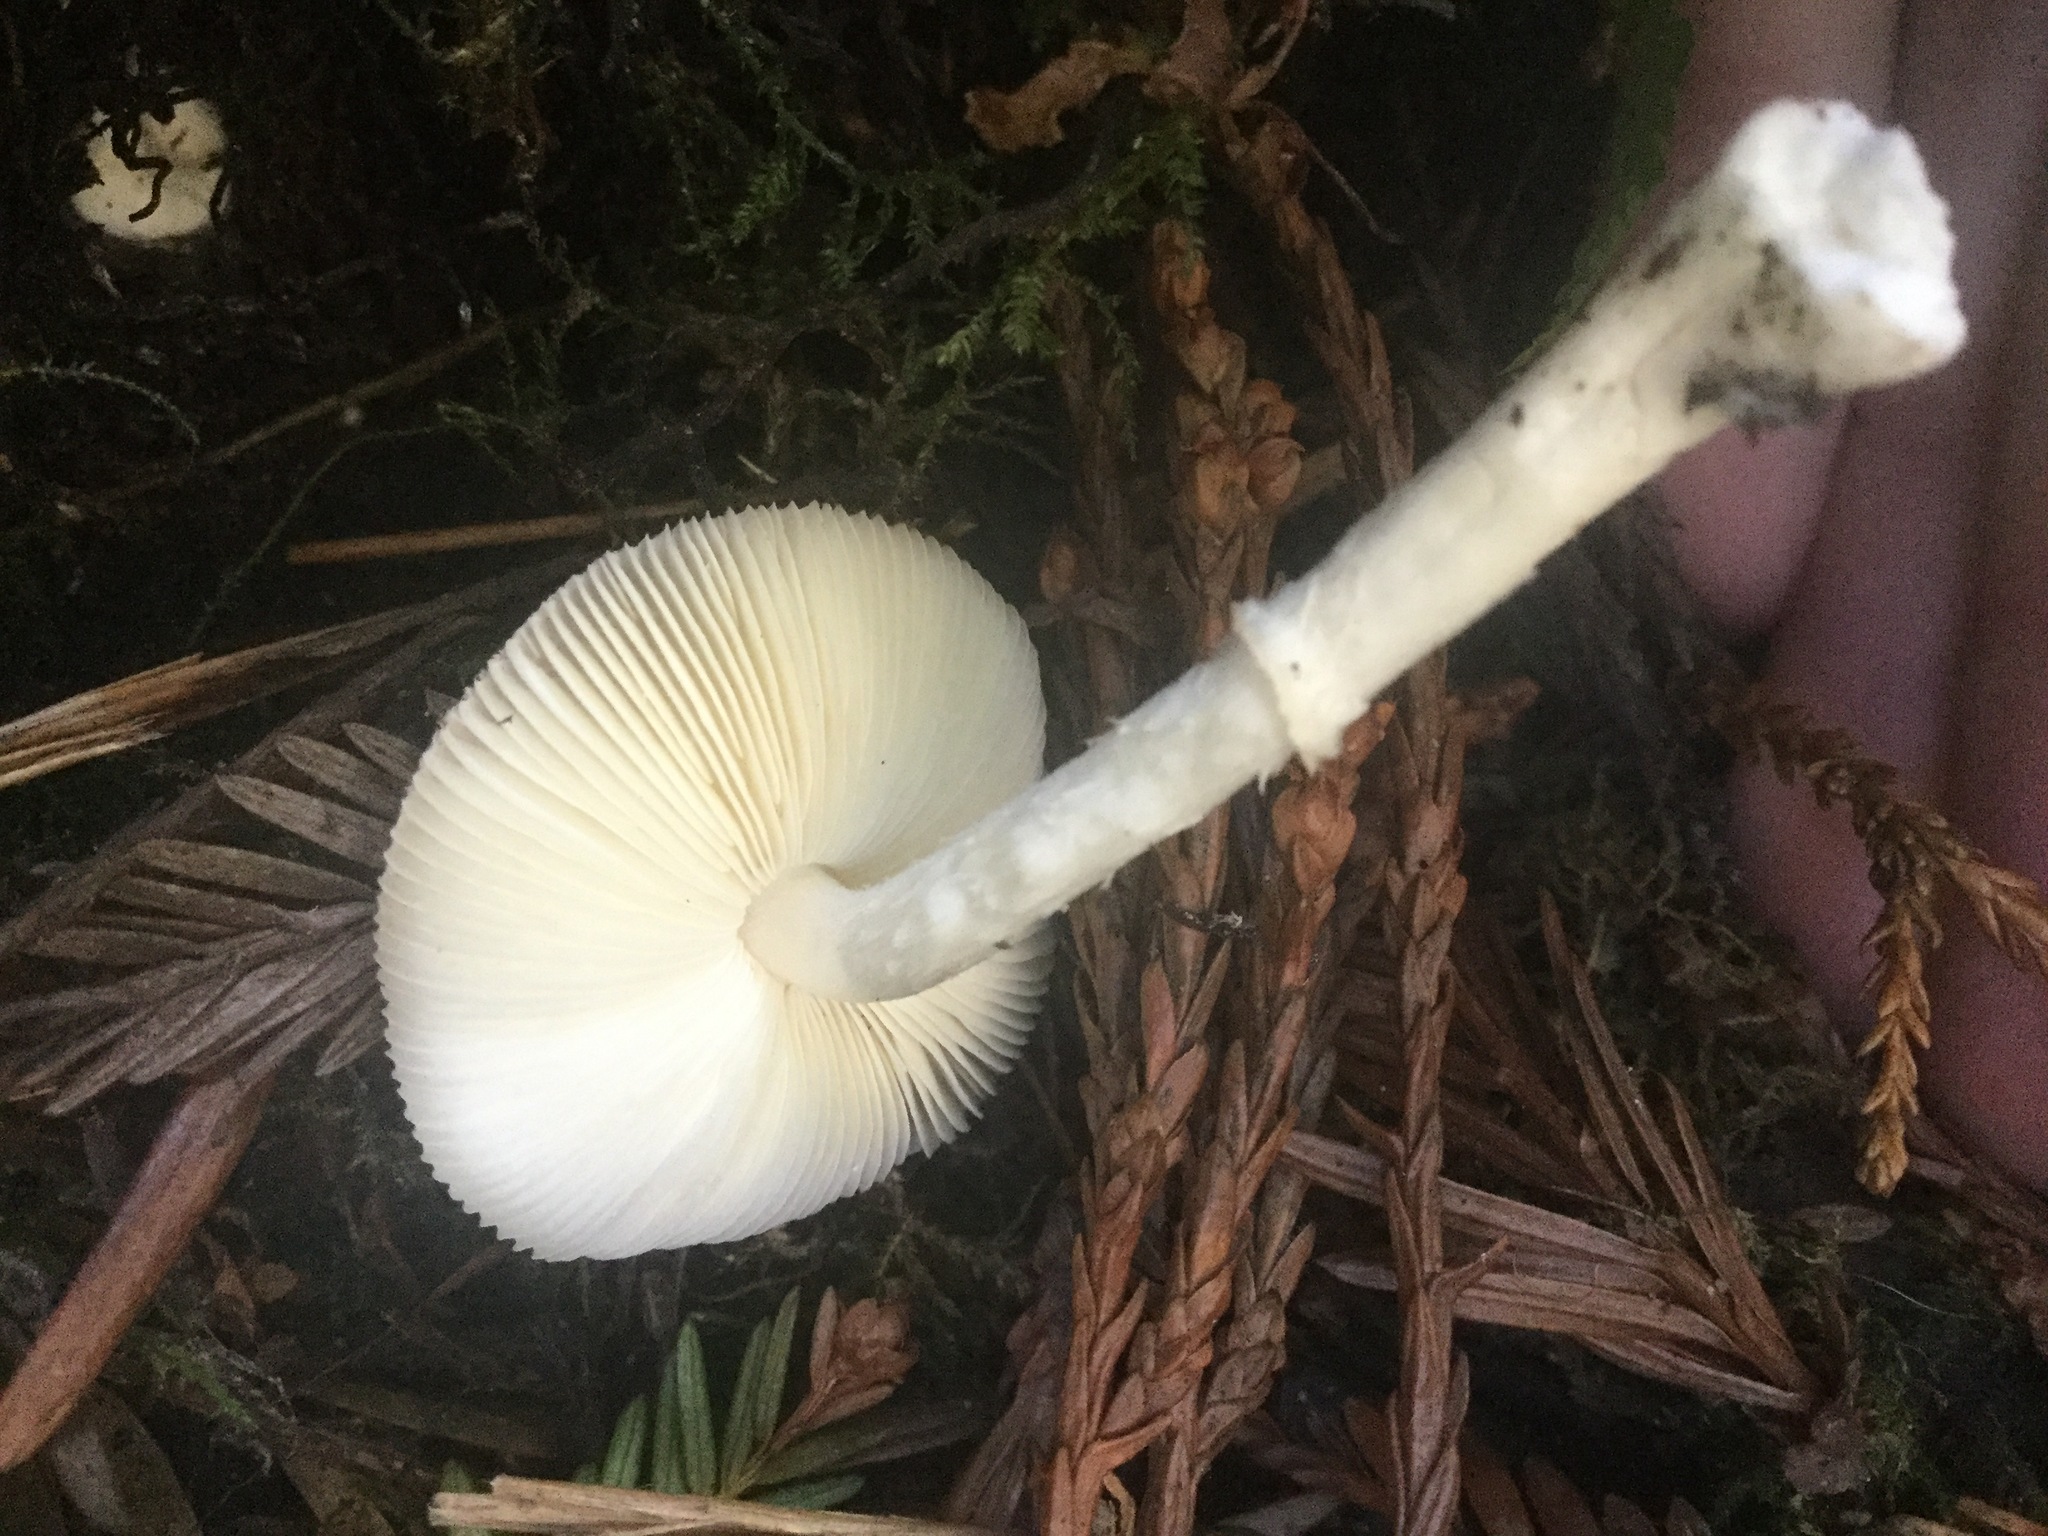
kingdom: Fungi
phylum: Basidiomycota
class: Agaricomycetes
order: Agaricales
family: Agaricaceae
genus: Lepiota
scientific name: Lepiota rubrotinctoides
